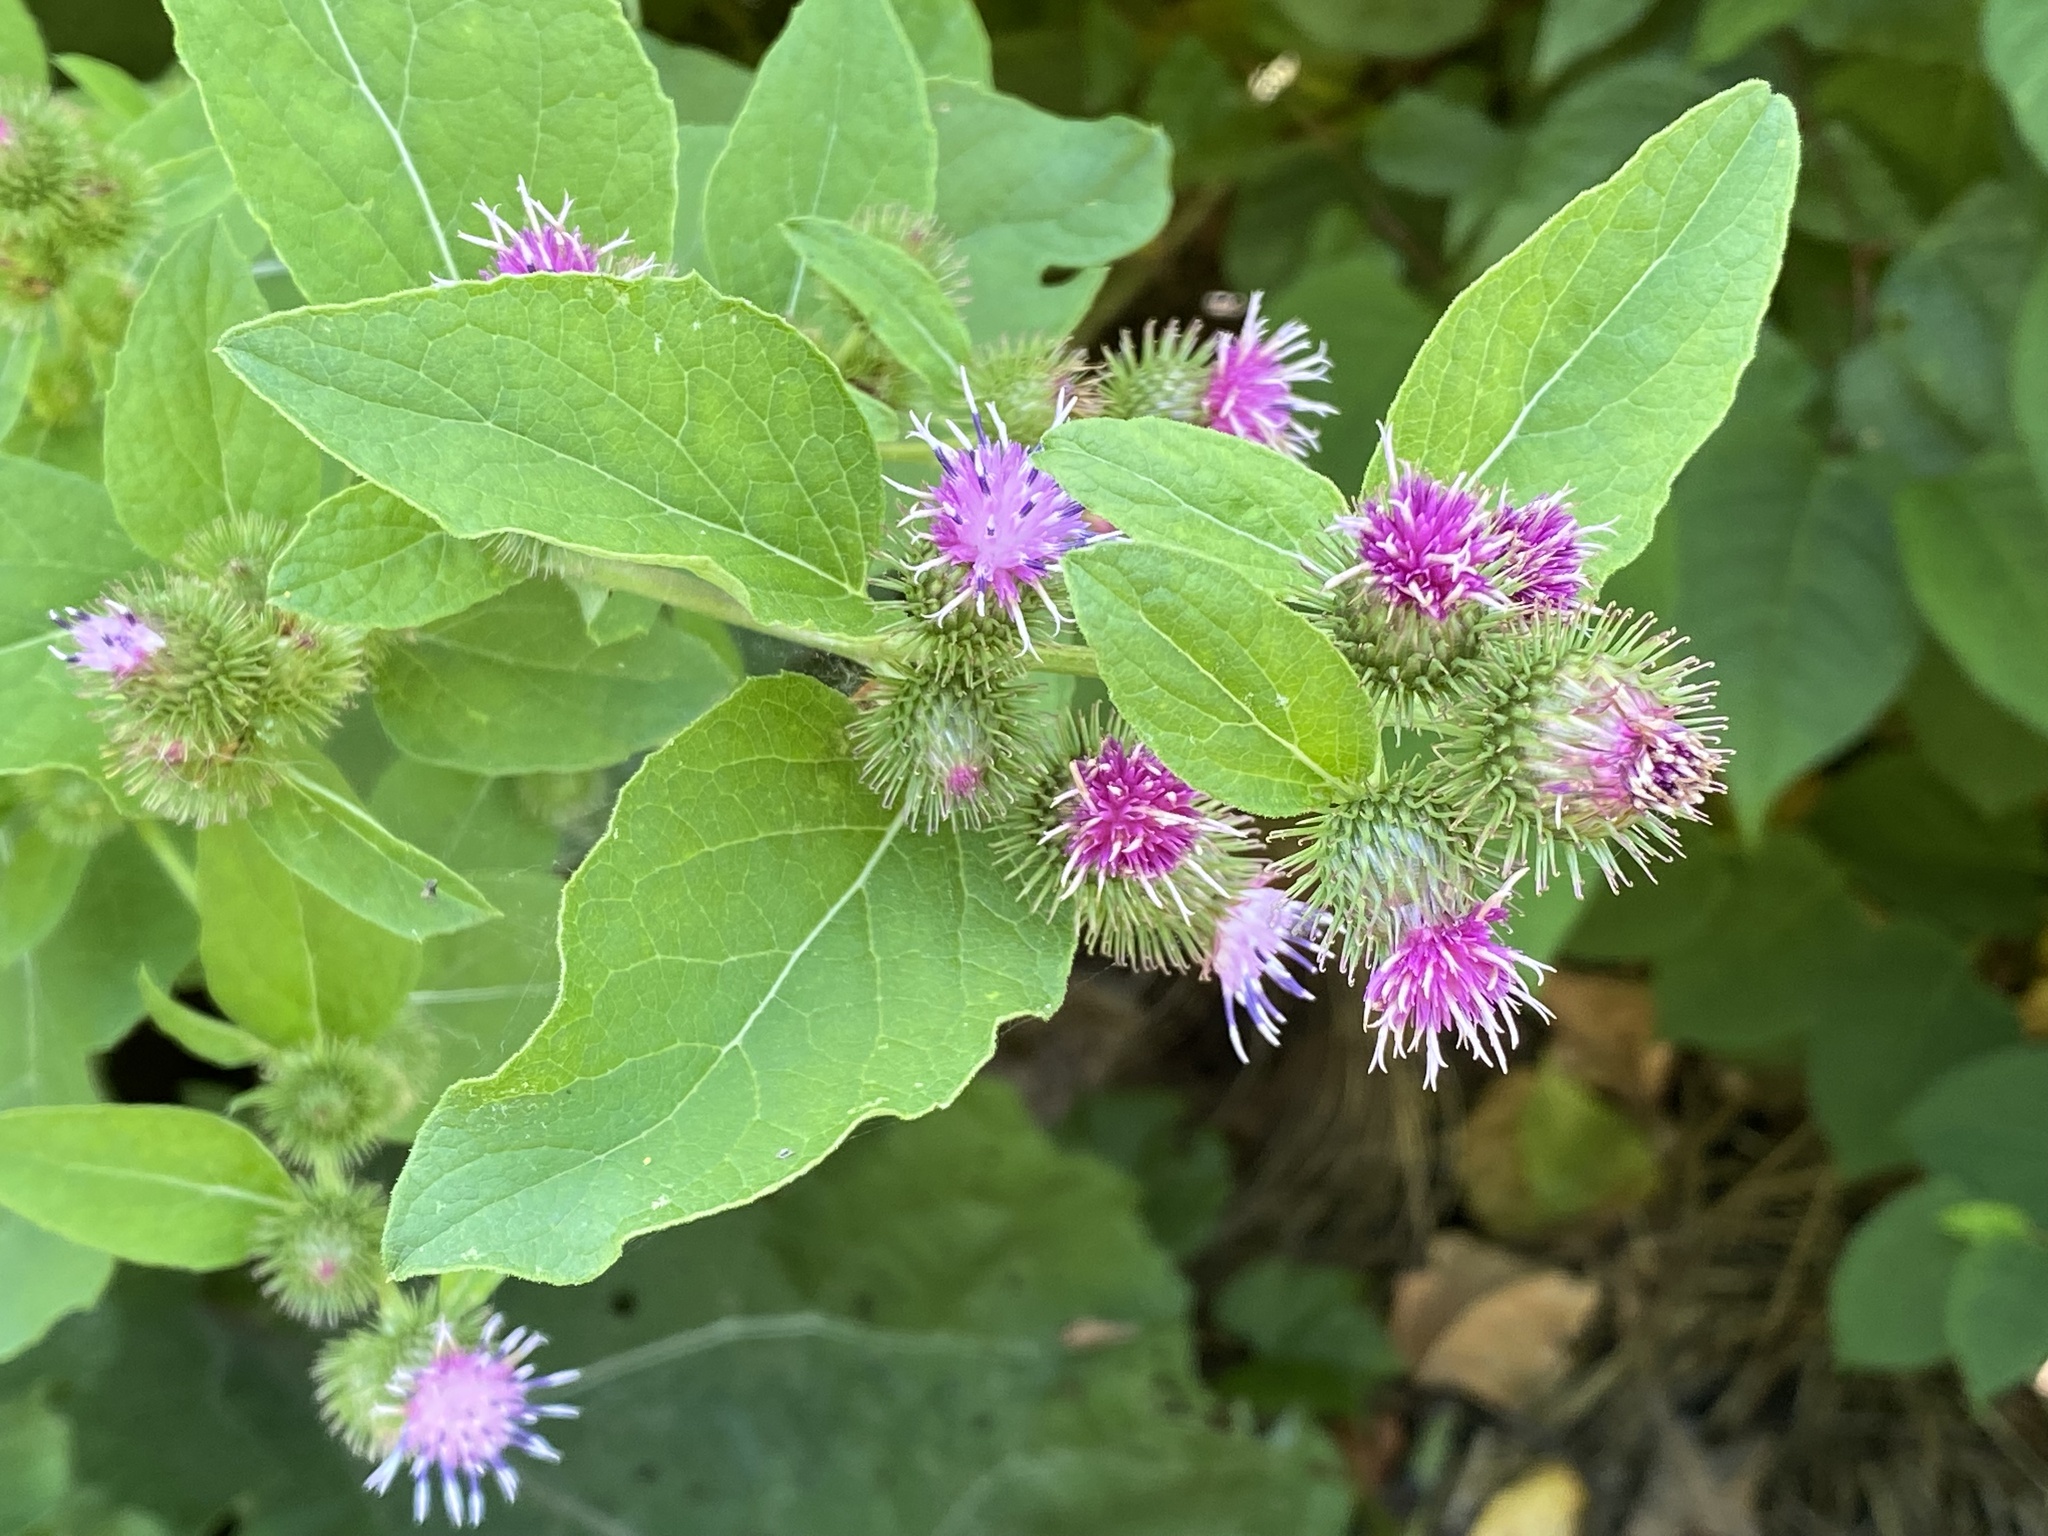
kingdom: Plantae
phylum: Tracheophyta
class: Magnoliopsida
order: Asterales
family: Asteraceae
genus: Arctium
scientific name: Arctium minus
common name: Lesser burdock
